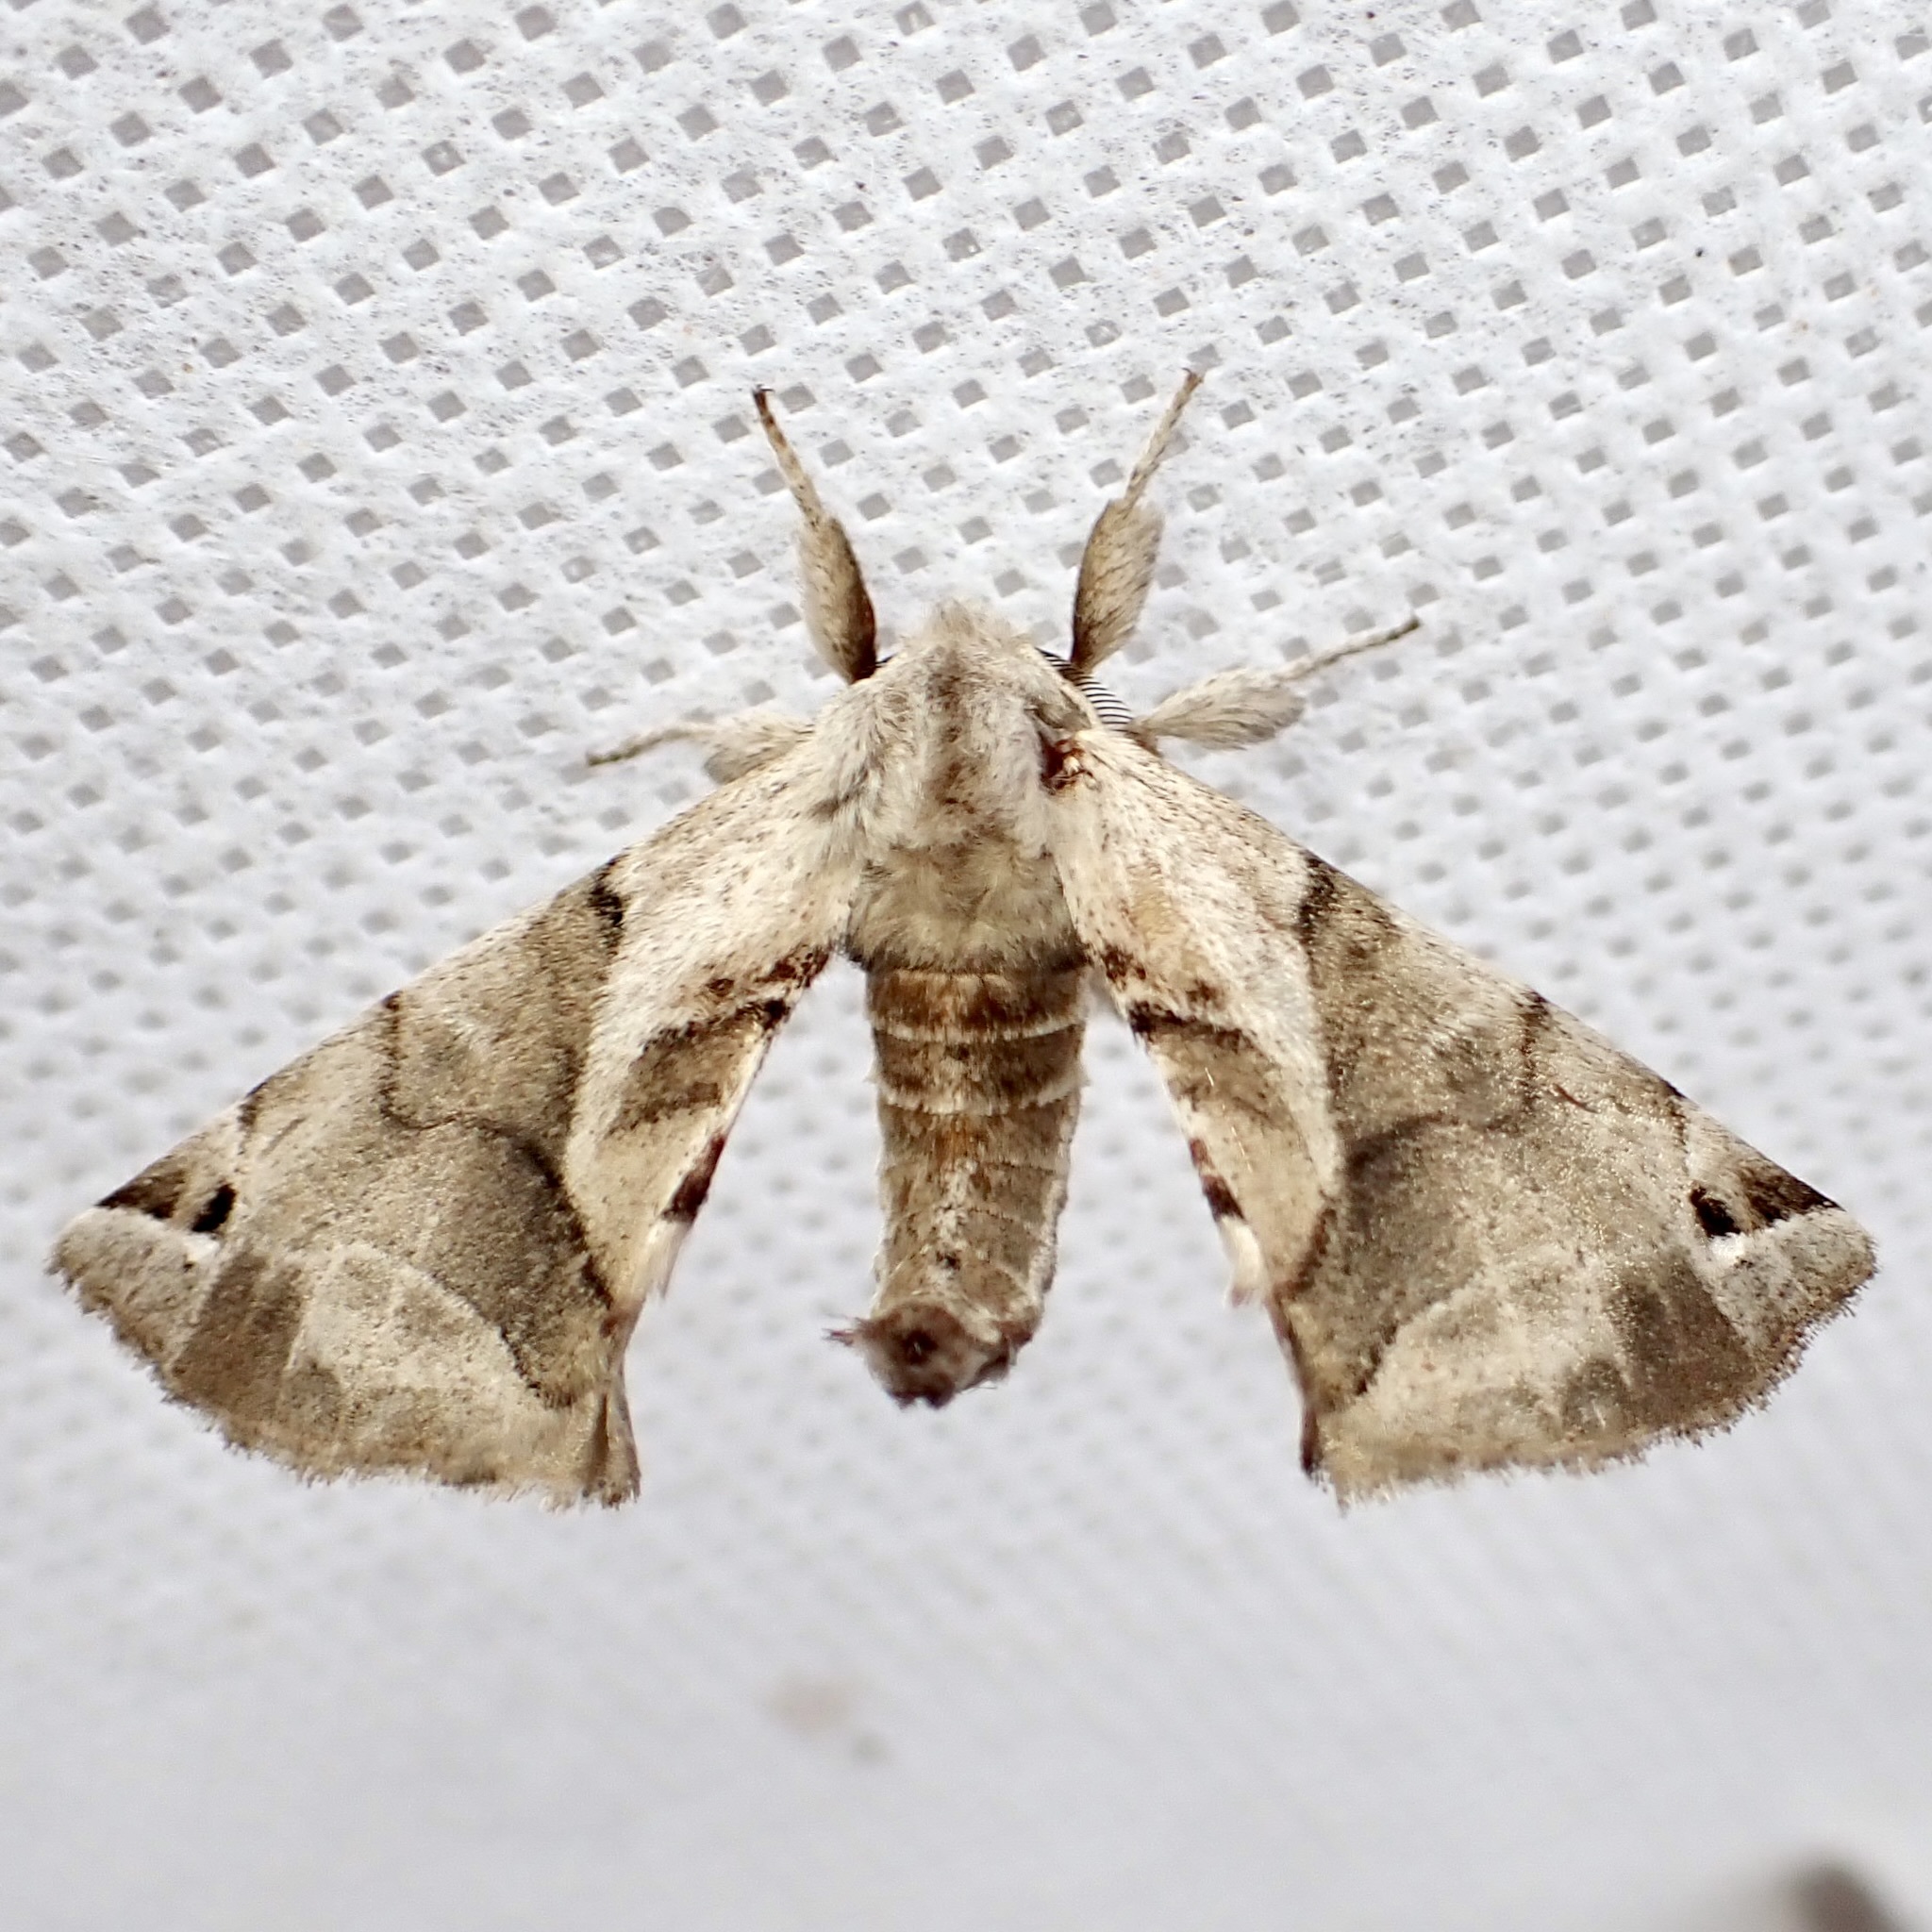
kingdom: Animalia
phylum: Arthropoda
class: Insecta
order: Lepidoptera
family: Apatelodidae
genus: Hygrochroa
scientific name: Hygrochroa Apatelodes pudefacta
